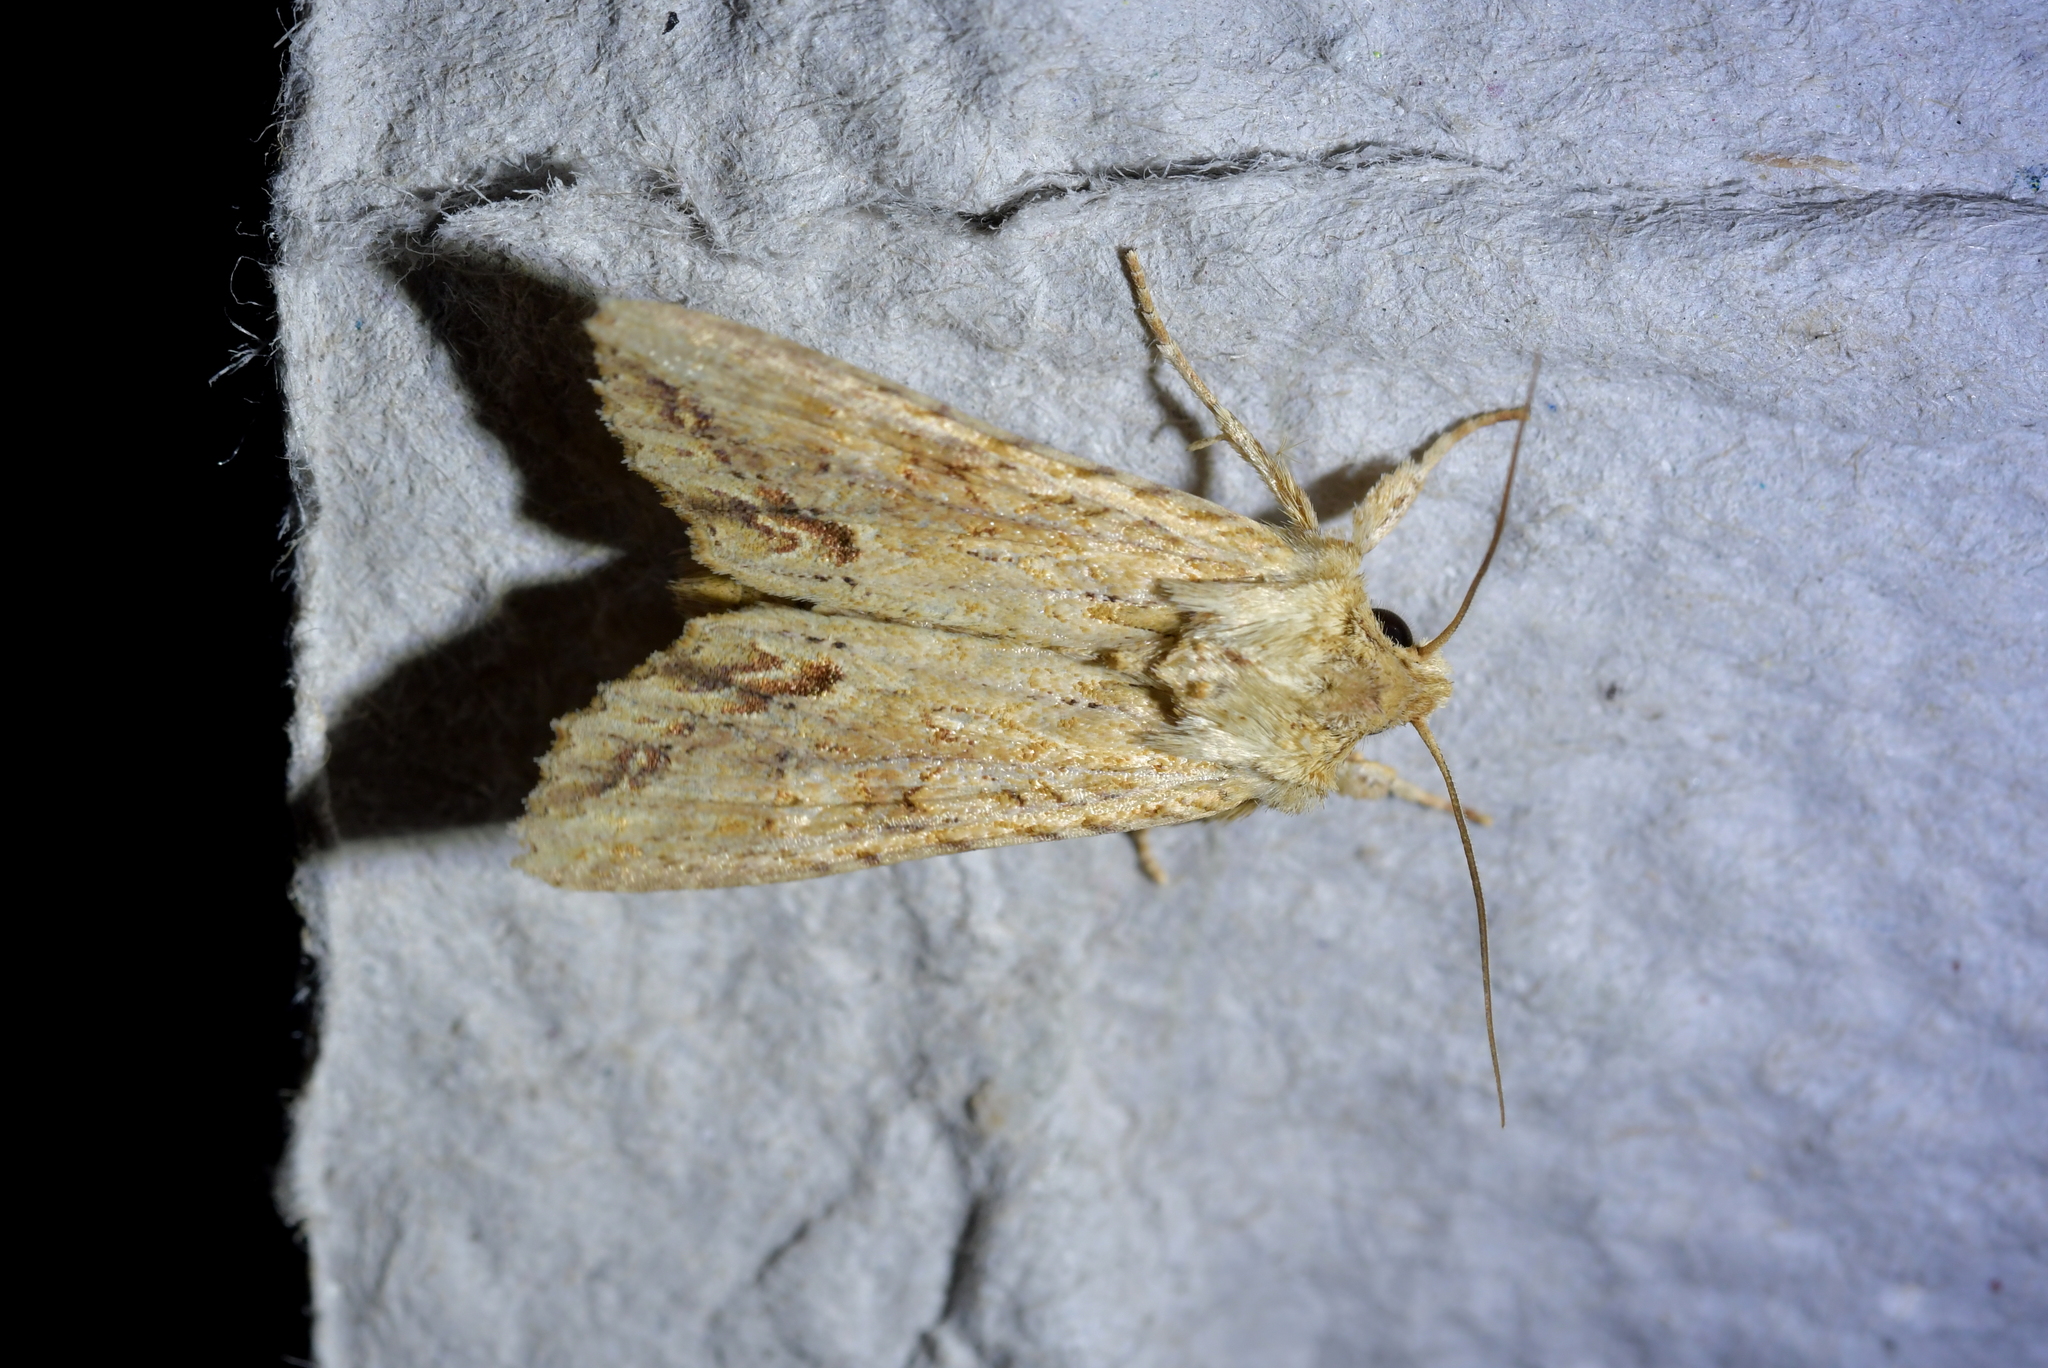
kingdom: Animalia
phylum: Arthropoda
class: Insecta
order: Lepidoptera
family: Noctuidae
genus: Ichneutica
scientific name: Ichneutica mollis
